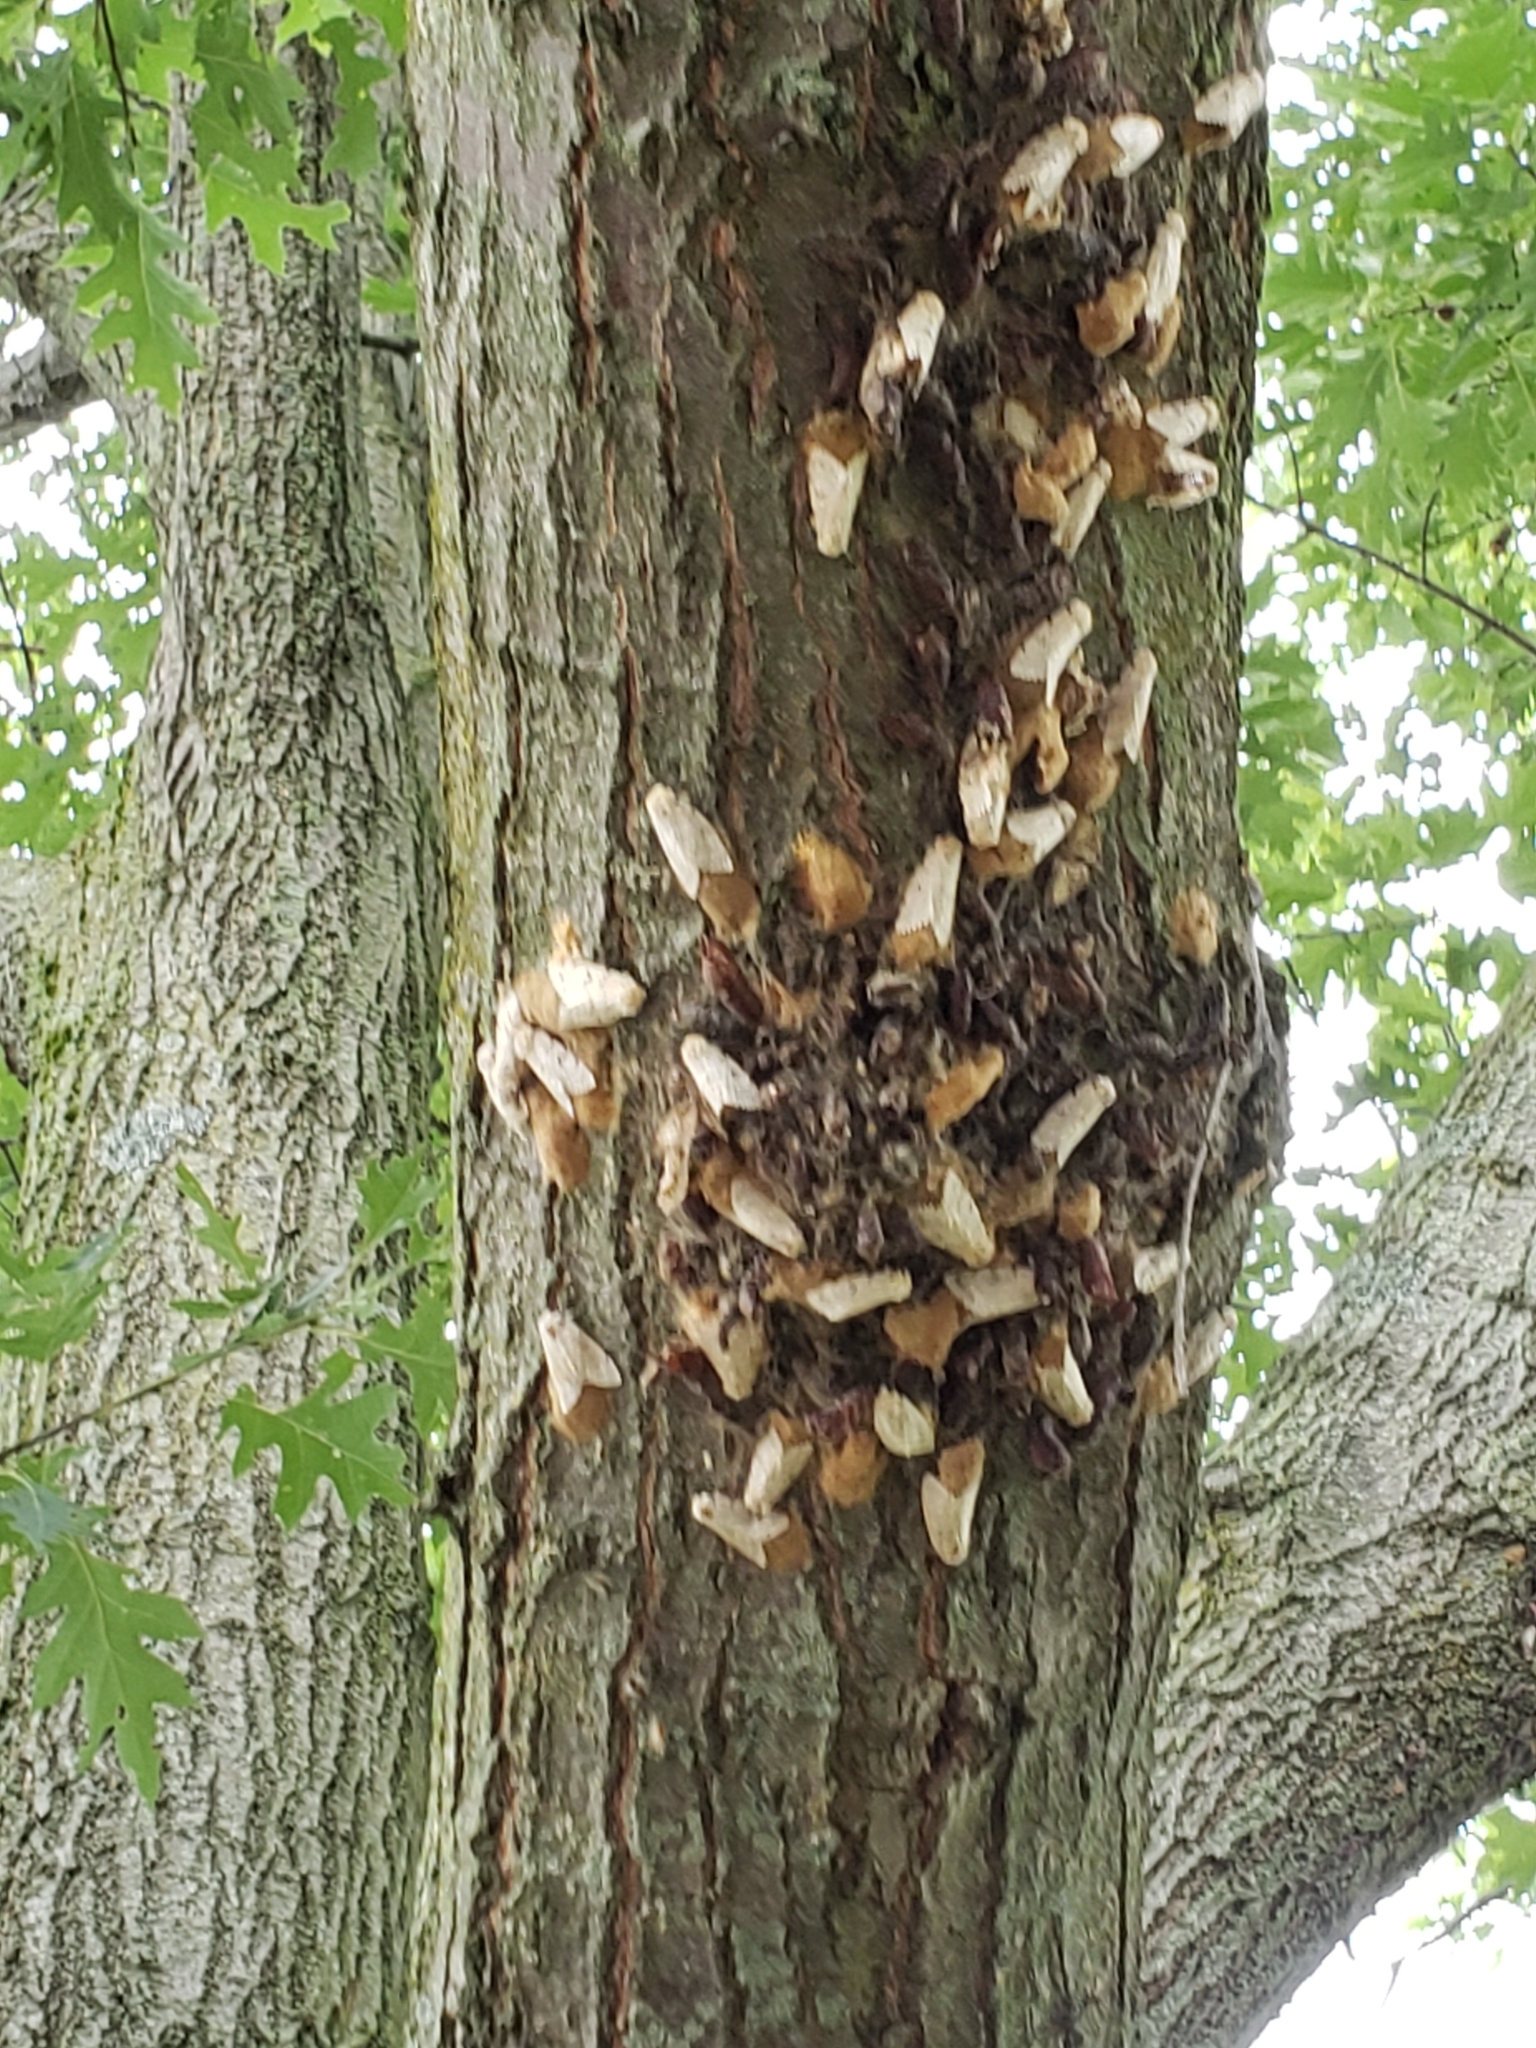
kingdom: Animalia
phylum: Arthropoda
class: Insecta
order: Lepidoptera
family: Erebidae
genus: Lymantria
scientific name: Lymantria dispar
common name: Gypsy moth
